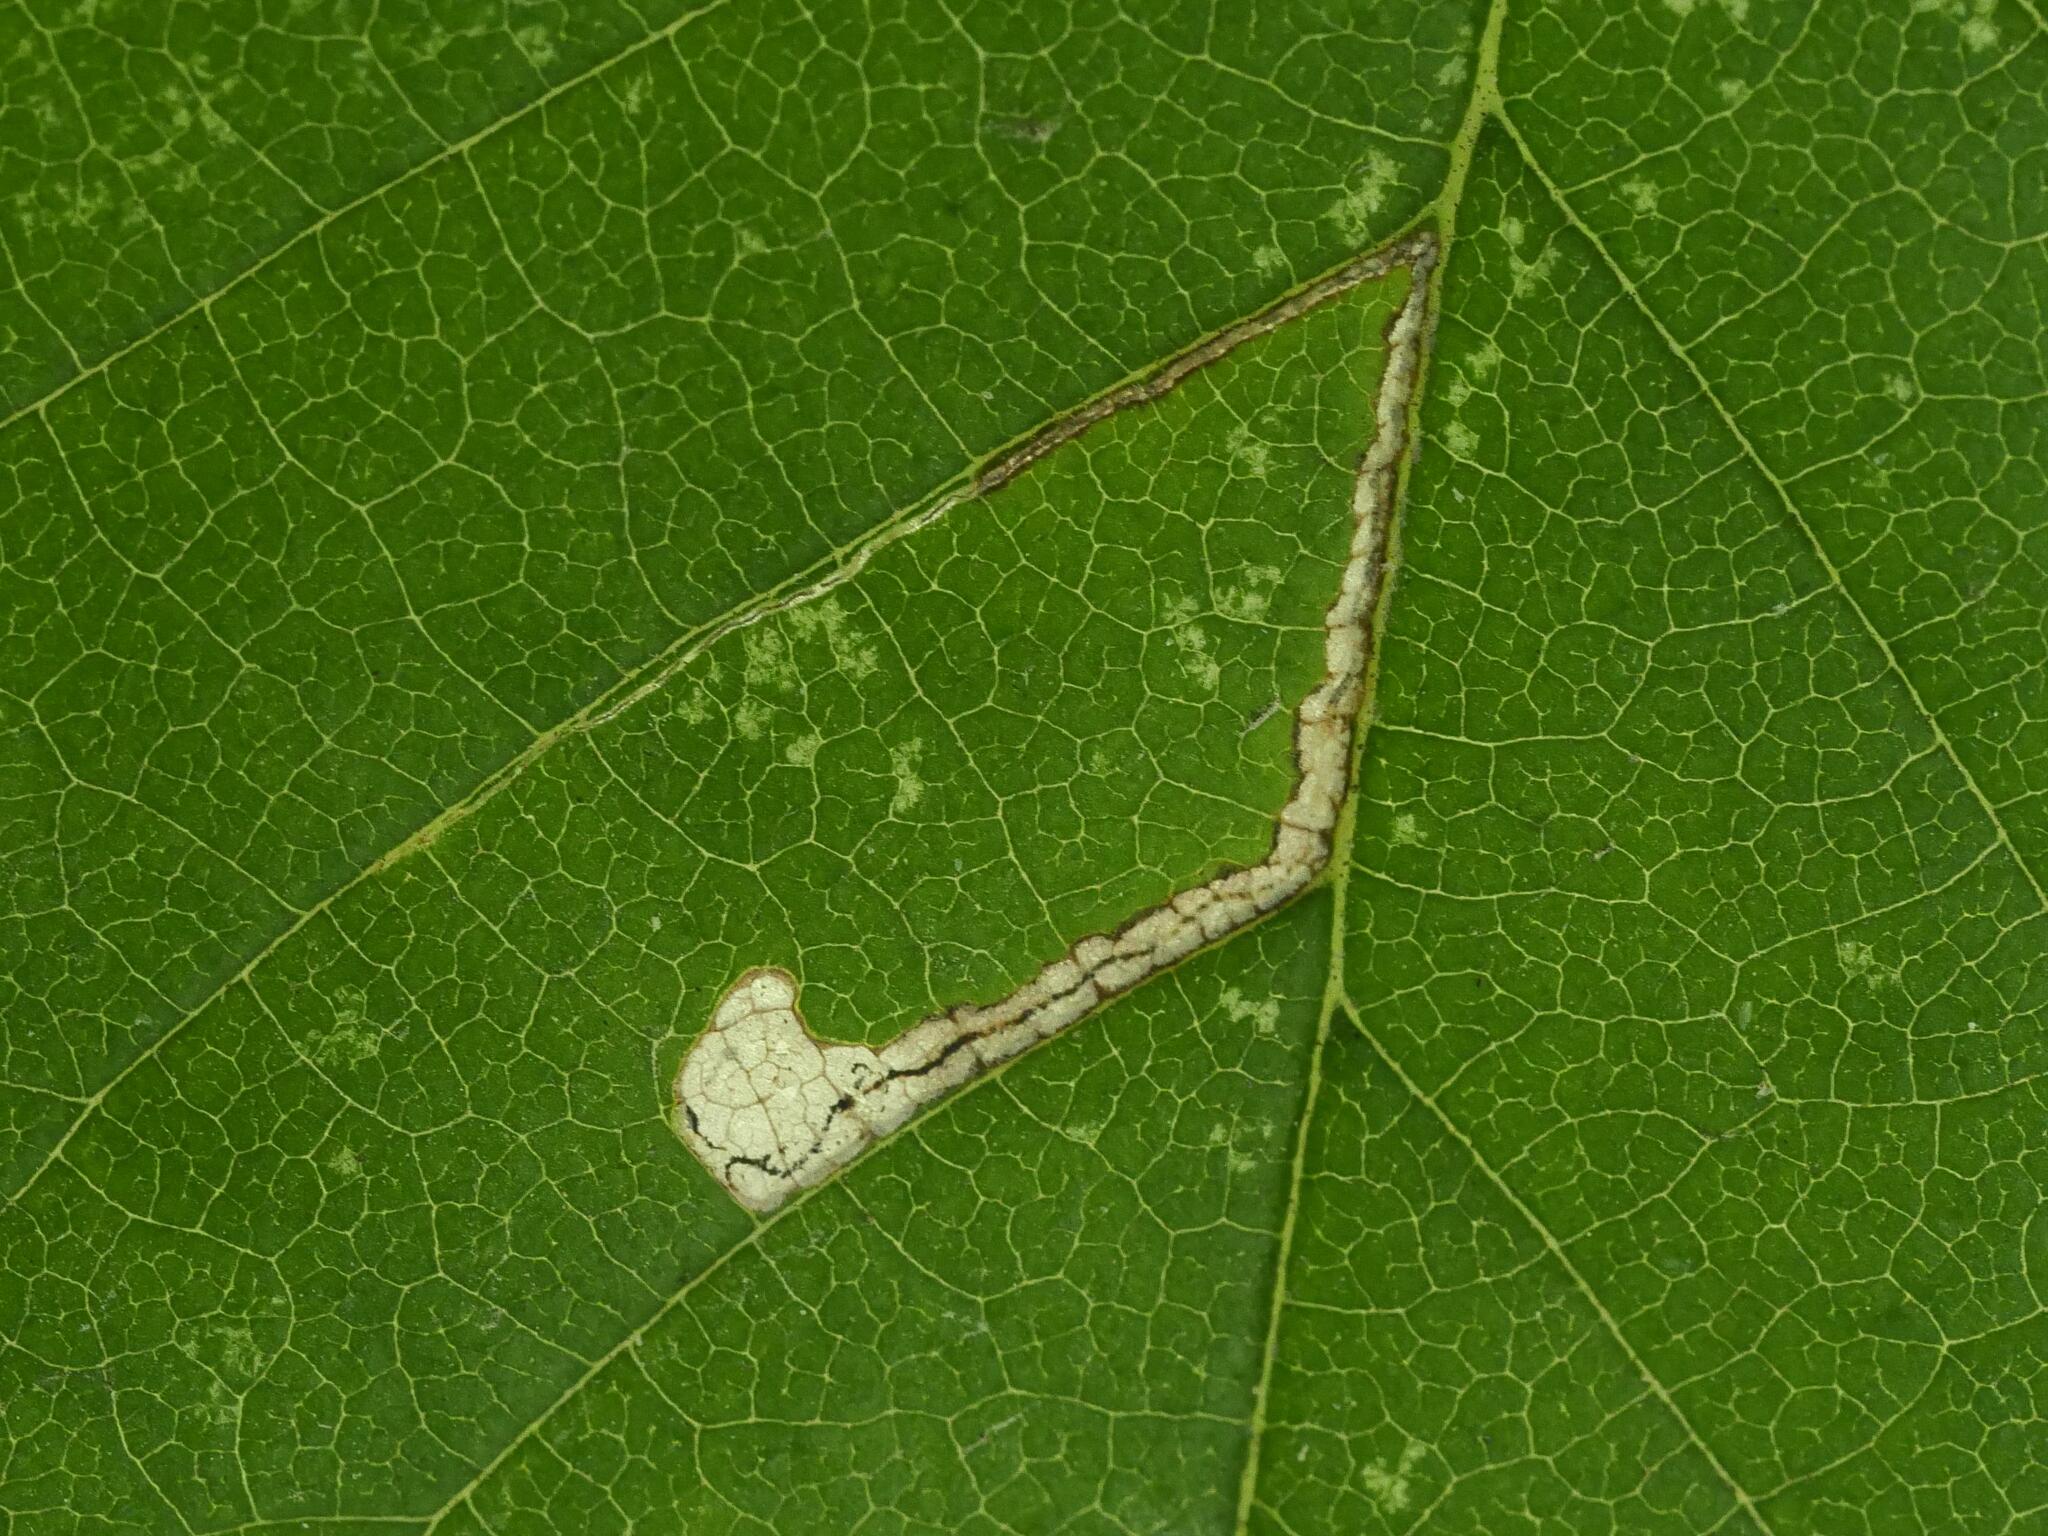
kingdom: Animalia
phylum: Arthropoda
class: Insecta
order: Lepidoptera
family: Nepticulidae
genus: Stigmella
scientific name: Stigmella ulmivora
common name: Barred elm pigmy
